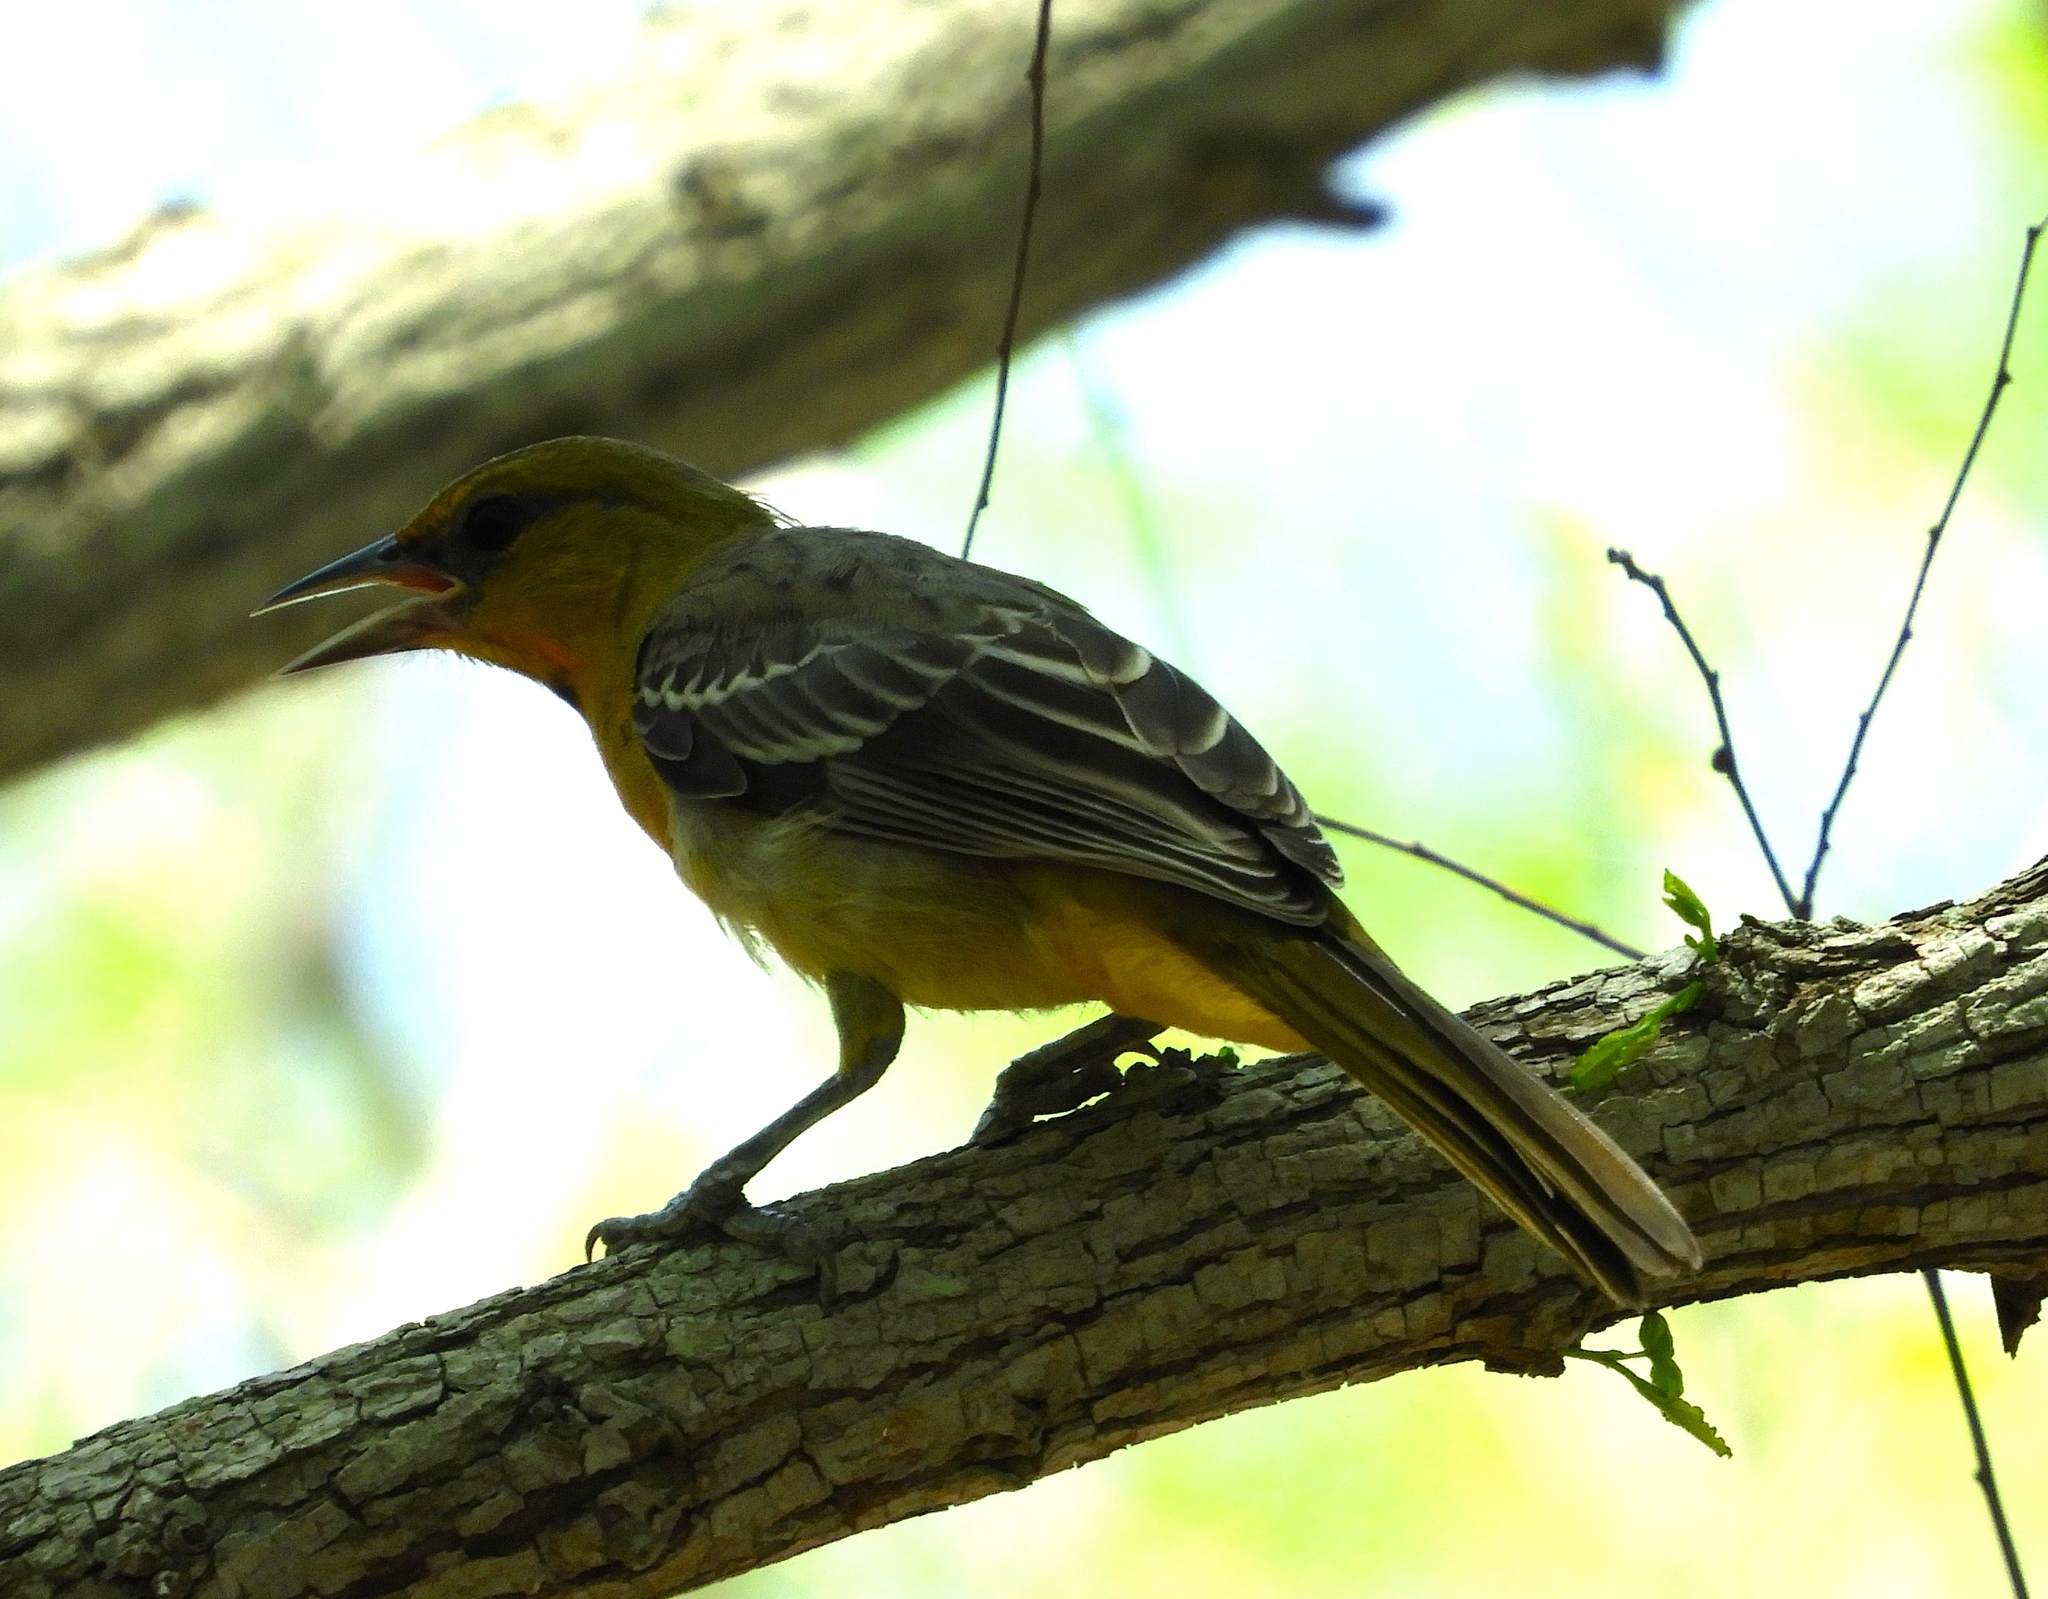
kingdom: Animalia
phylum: Chordata
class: Aves
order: Passeriformes
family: Icteridae
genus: Icterus
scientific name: Icterus pustulatus
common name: Streak-backed oriole
